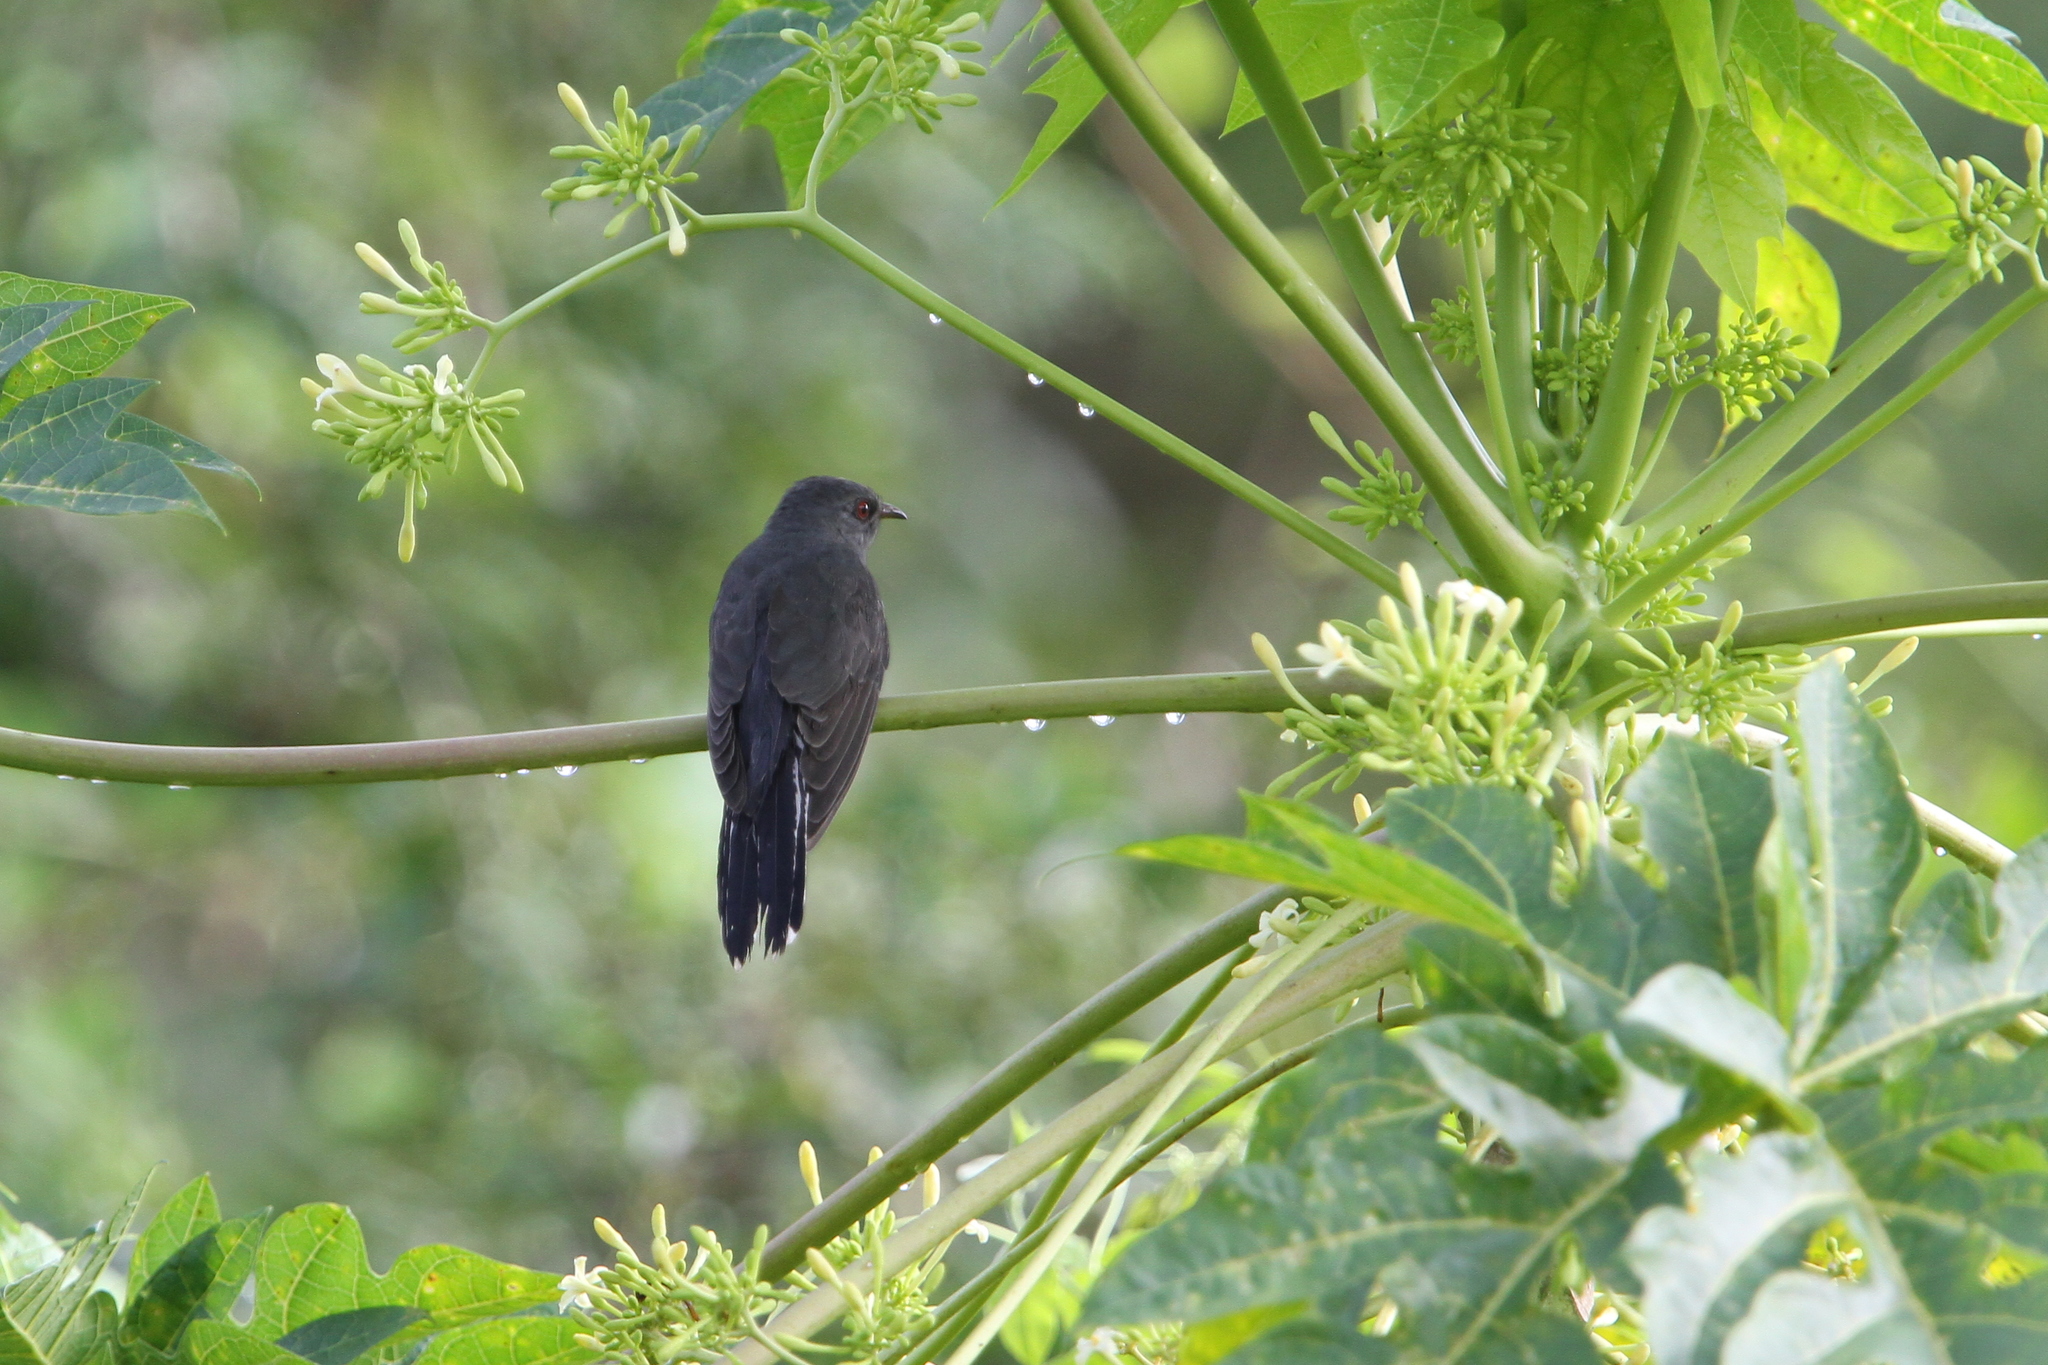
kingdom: Animalia
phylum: Chordata
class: Aves
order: Cuculiformes
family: Cuculidae
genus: Cacomantis
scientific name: Cacomantis passerinus
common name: Grey-bellied cuckoo
